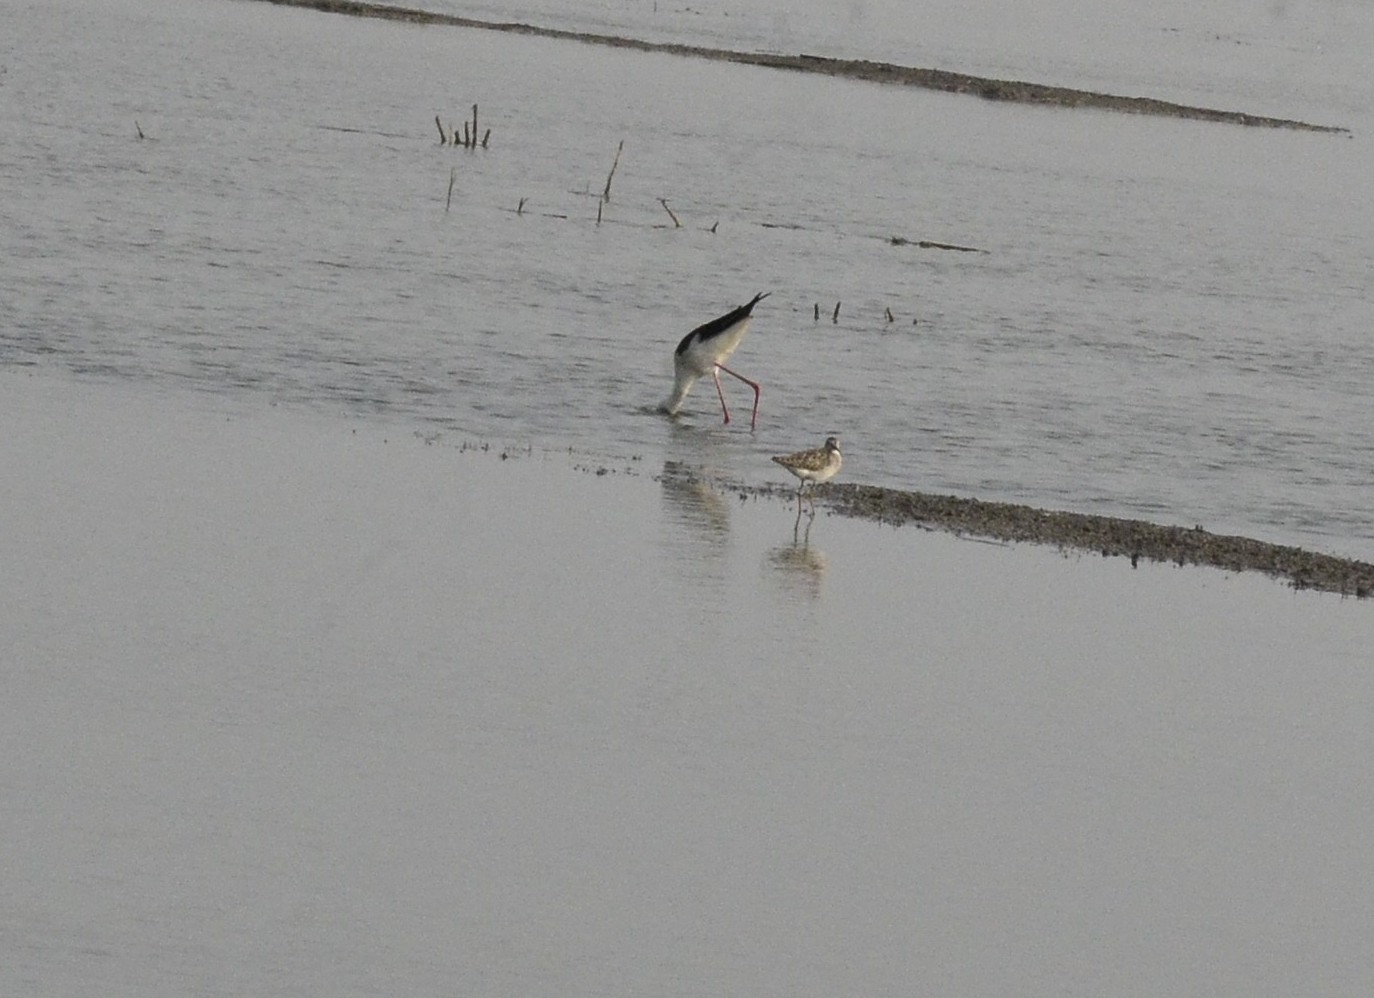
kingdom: Animalia
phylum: Chordata
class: Aves
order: Charadriiformes
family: Recurvirostridae
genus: Himantopus
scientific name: Himantopus himantopus
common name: Black-winged stilt
